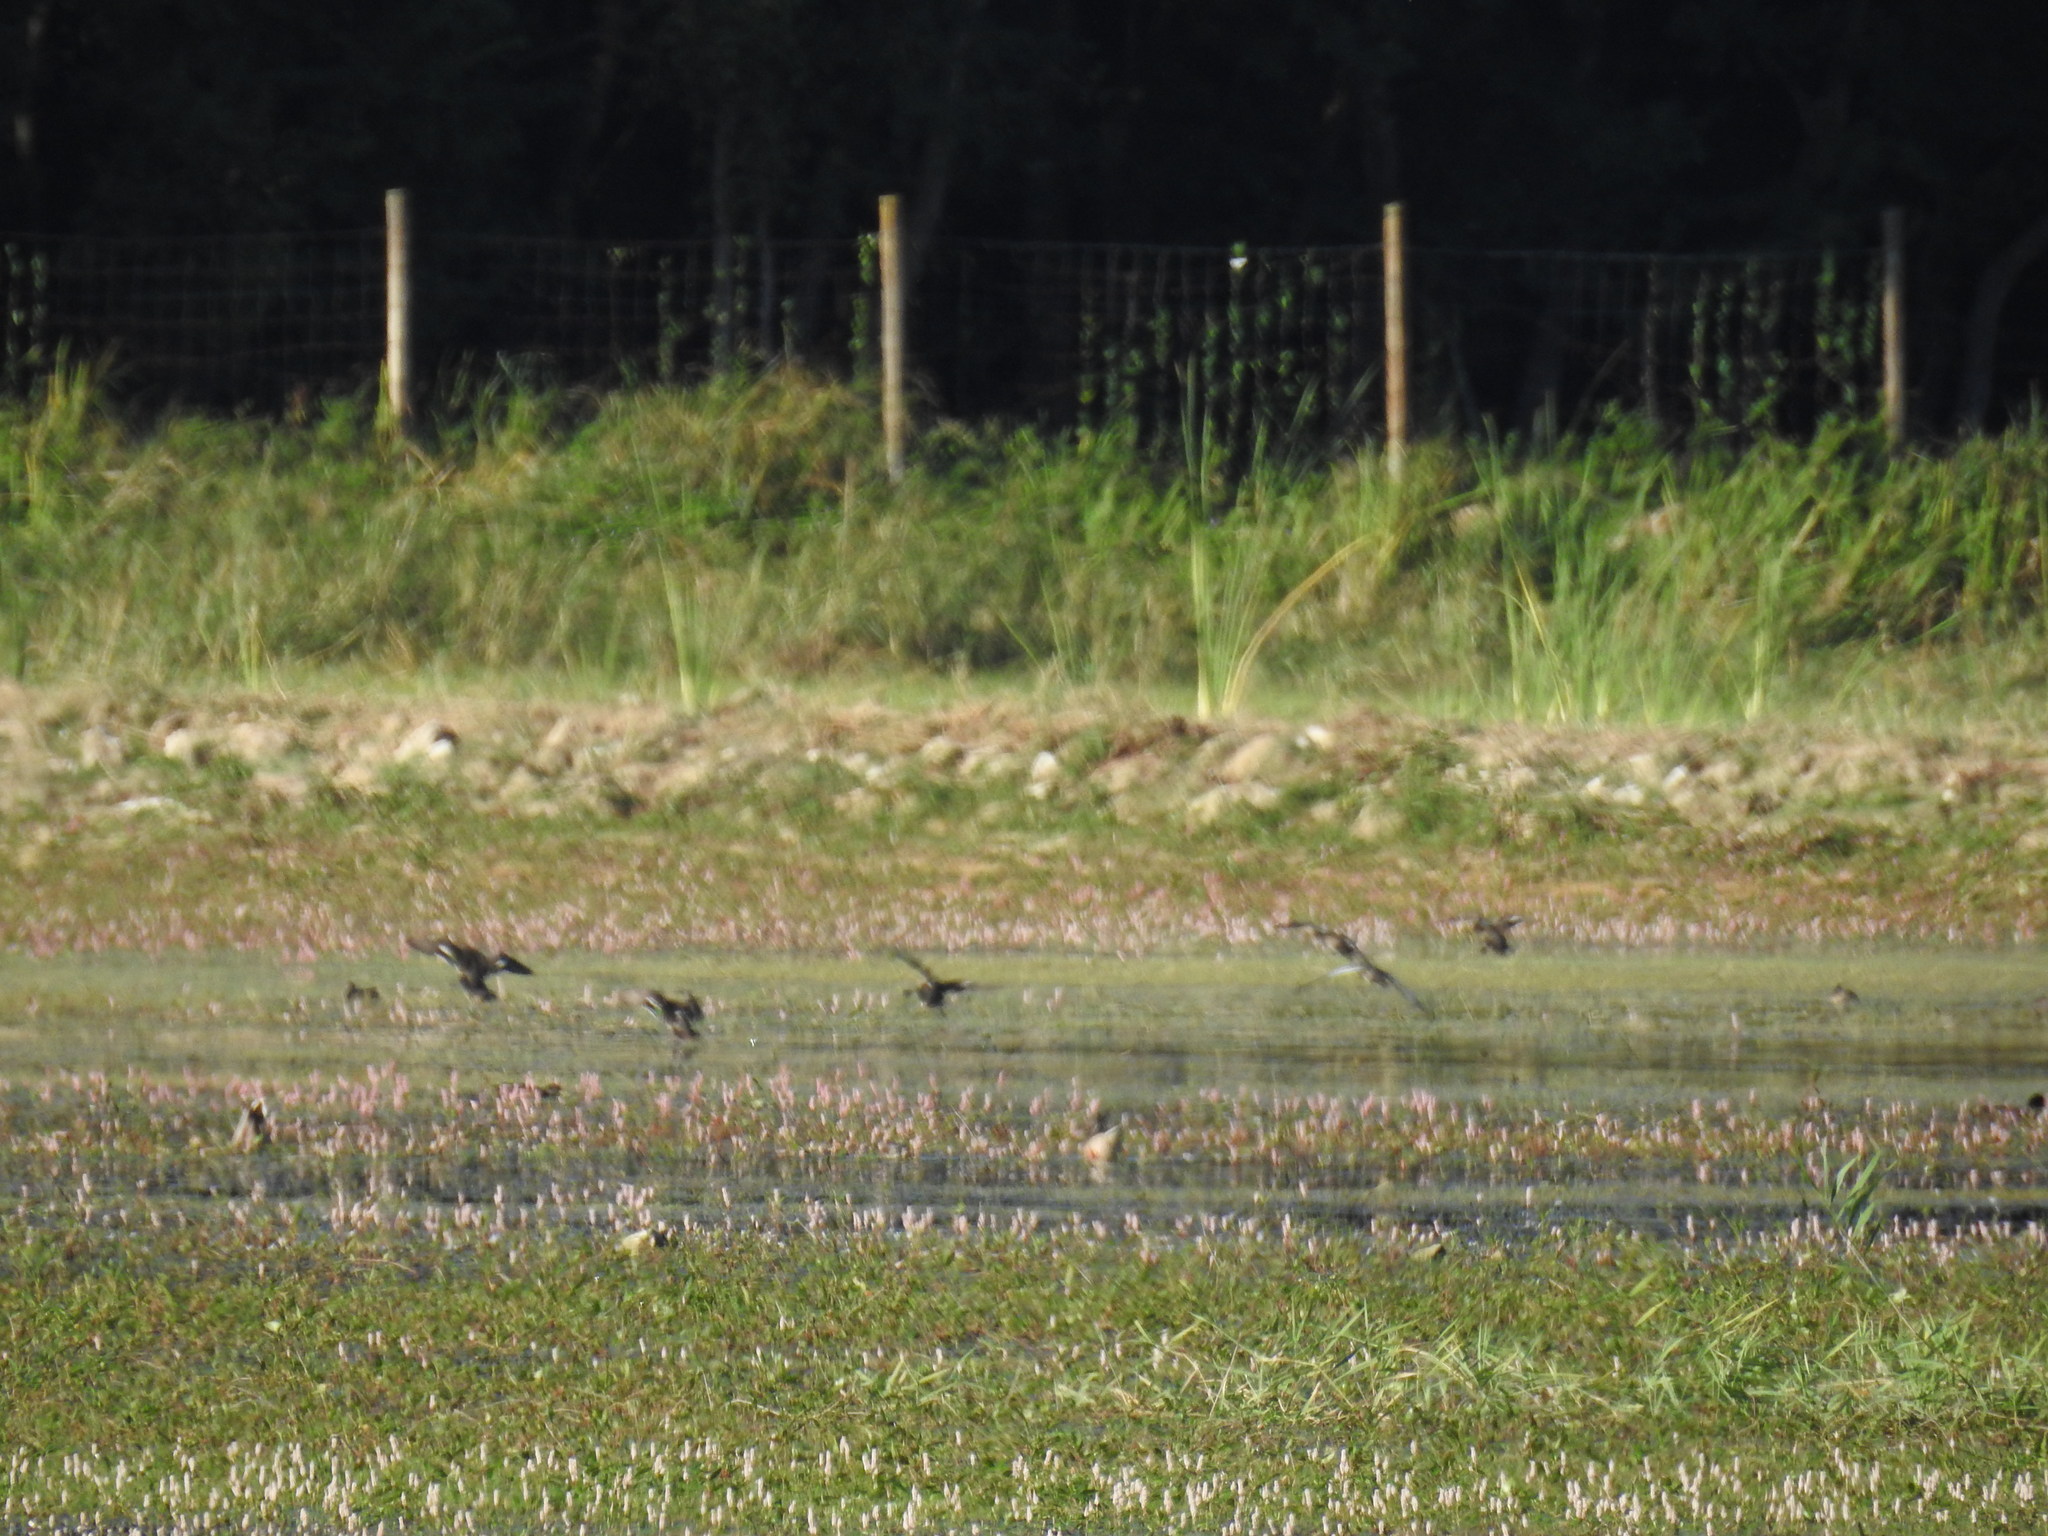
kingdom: Animalia
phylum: Chordata
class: Aves
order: Anseriformes
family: Anatidae
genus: Anas
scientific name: Anas crecca
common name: Eurasian teal
